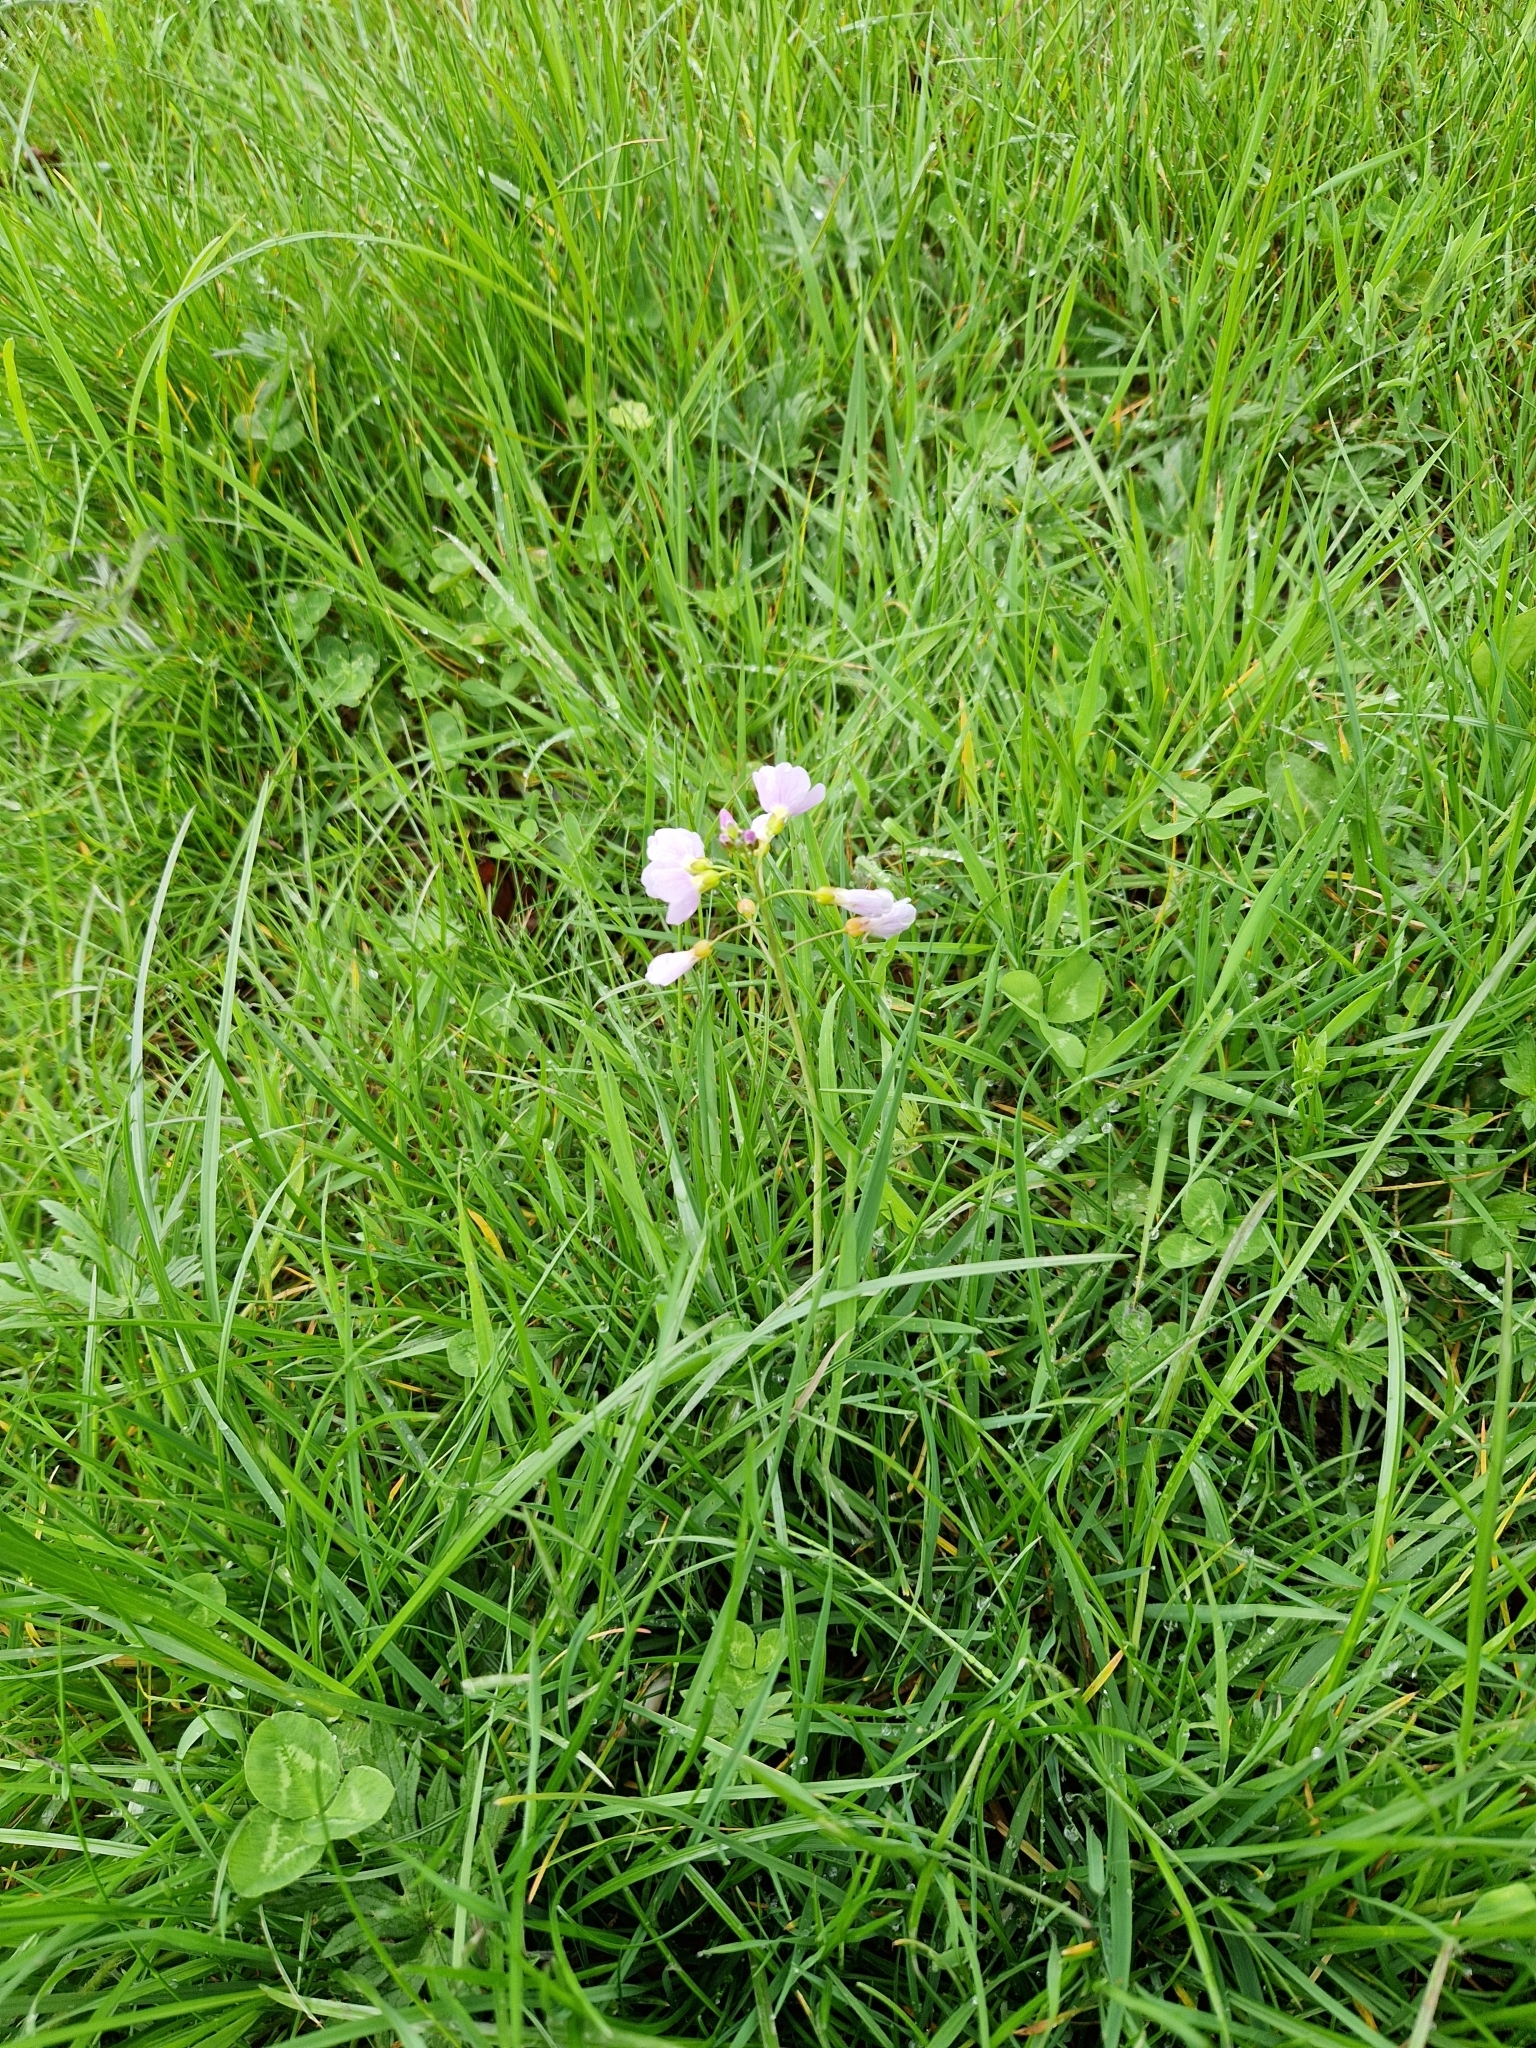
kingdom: Plantae
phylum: Tracheophyta
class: Magnoliopsida
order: Brassicales
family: Brassicaceae
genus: Cardamine
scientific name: Cardamine pratensis
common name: Cuckoo flower
